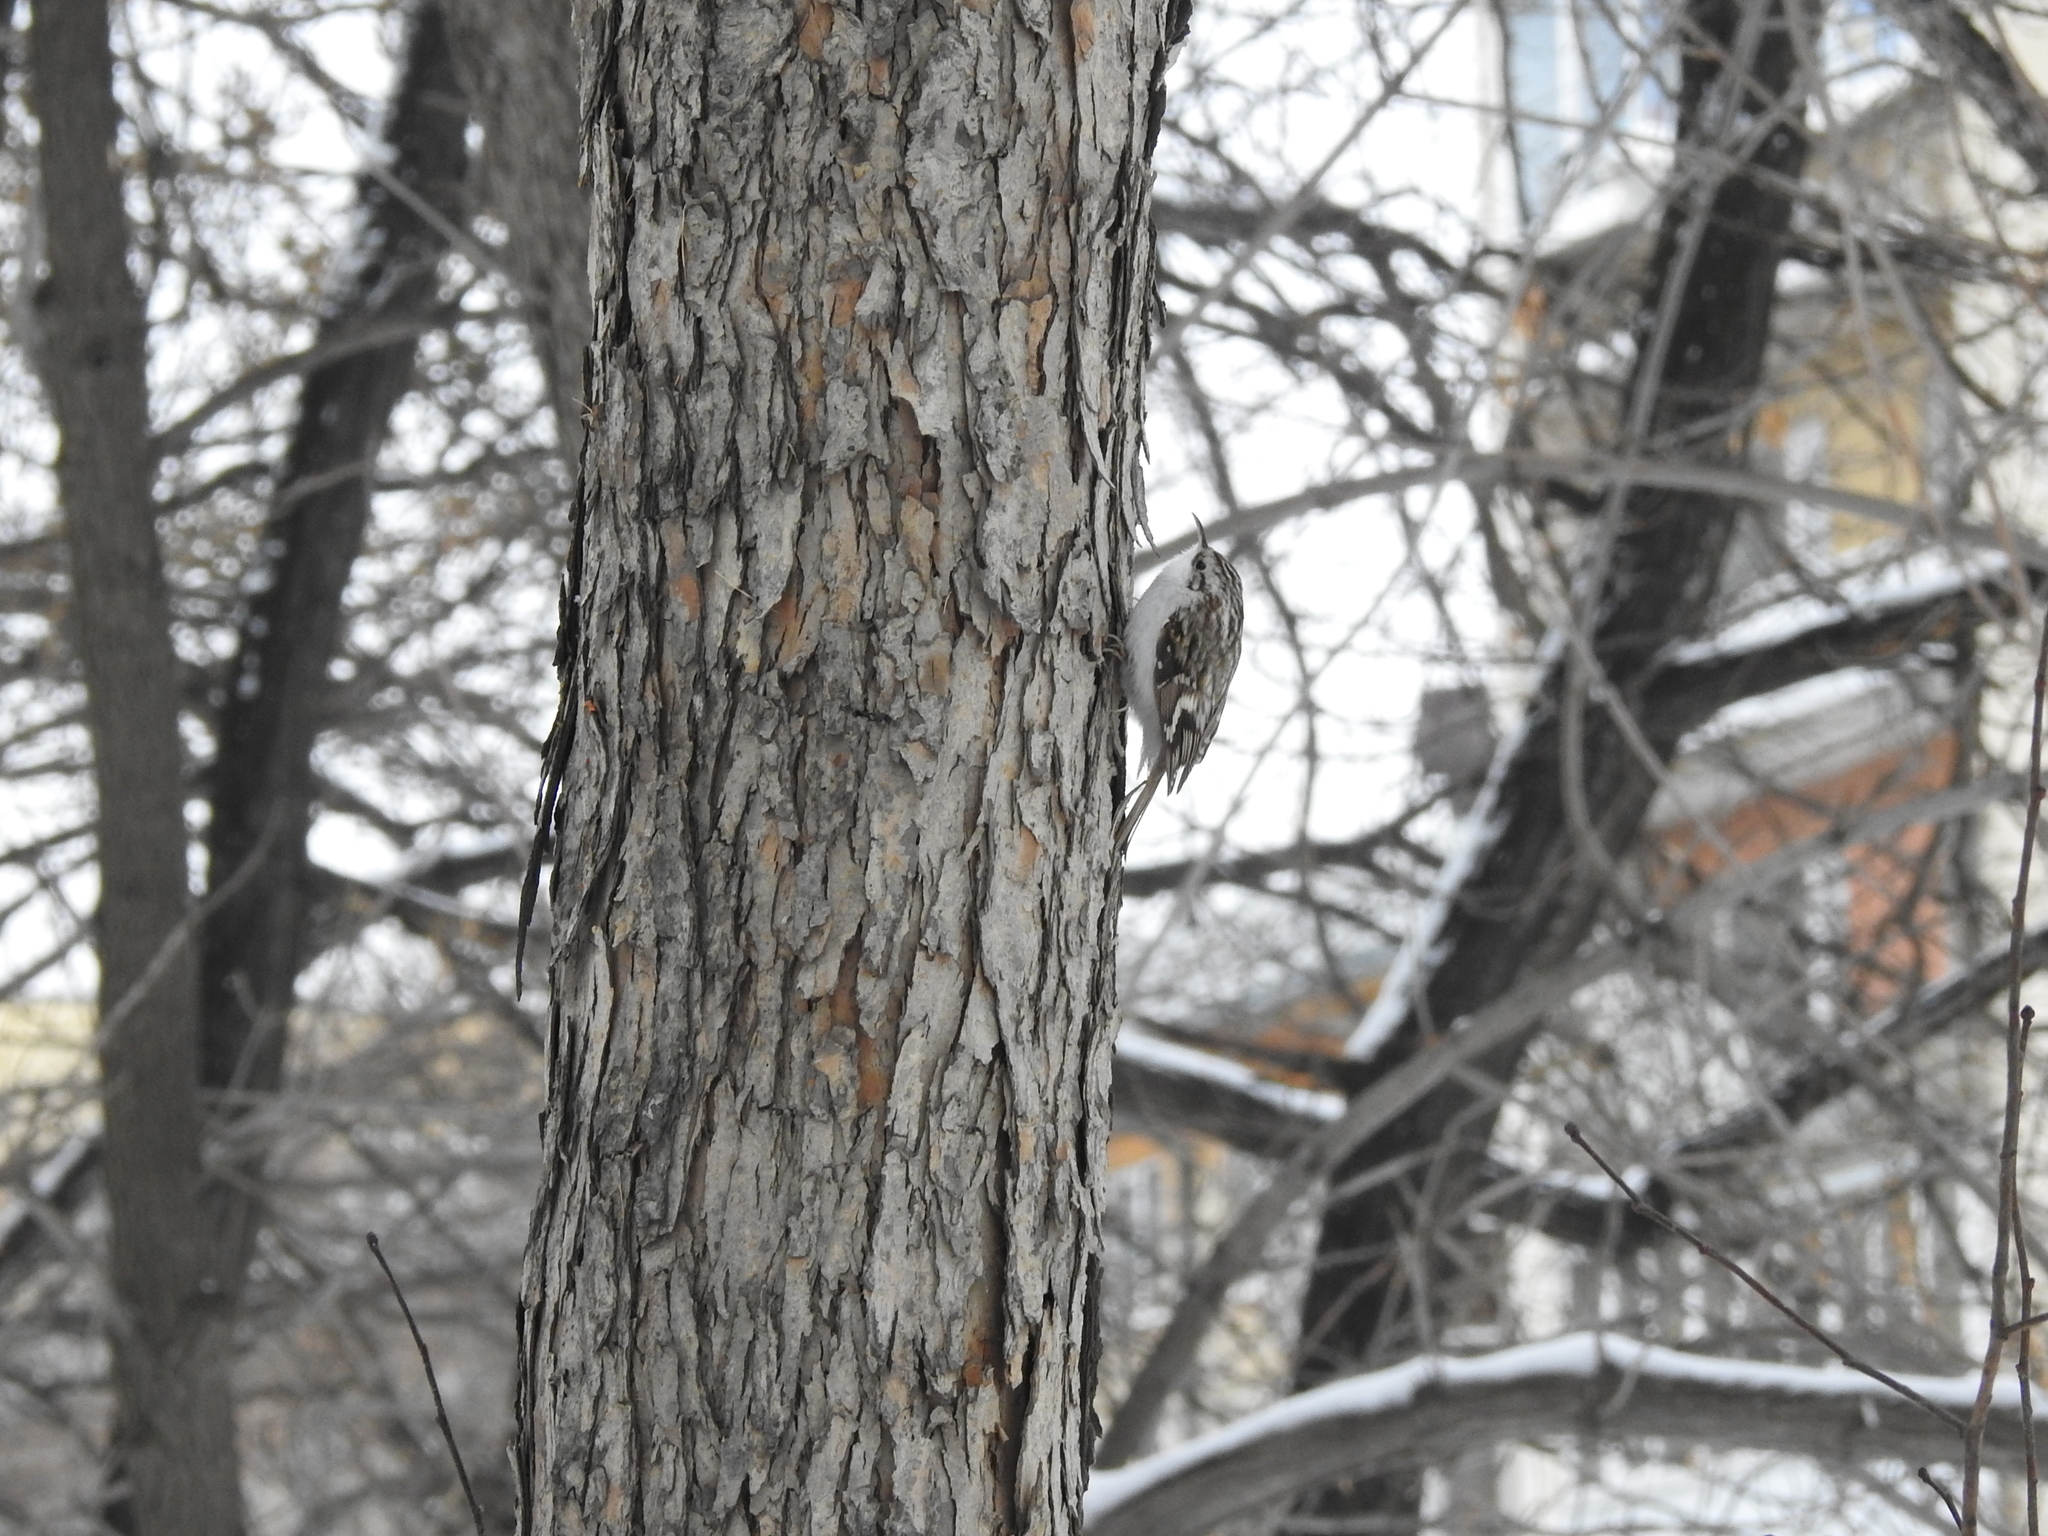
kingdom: Animalia
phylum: Chordata
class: Aves
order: Passeriformes
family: Certhiidae
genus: Certhia
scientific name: Certhia familiaris
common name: Eurasian treecreeper
